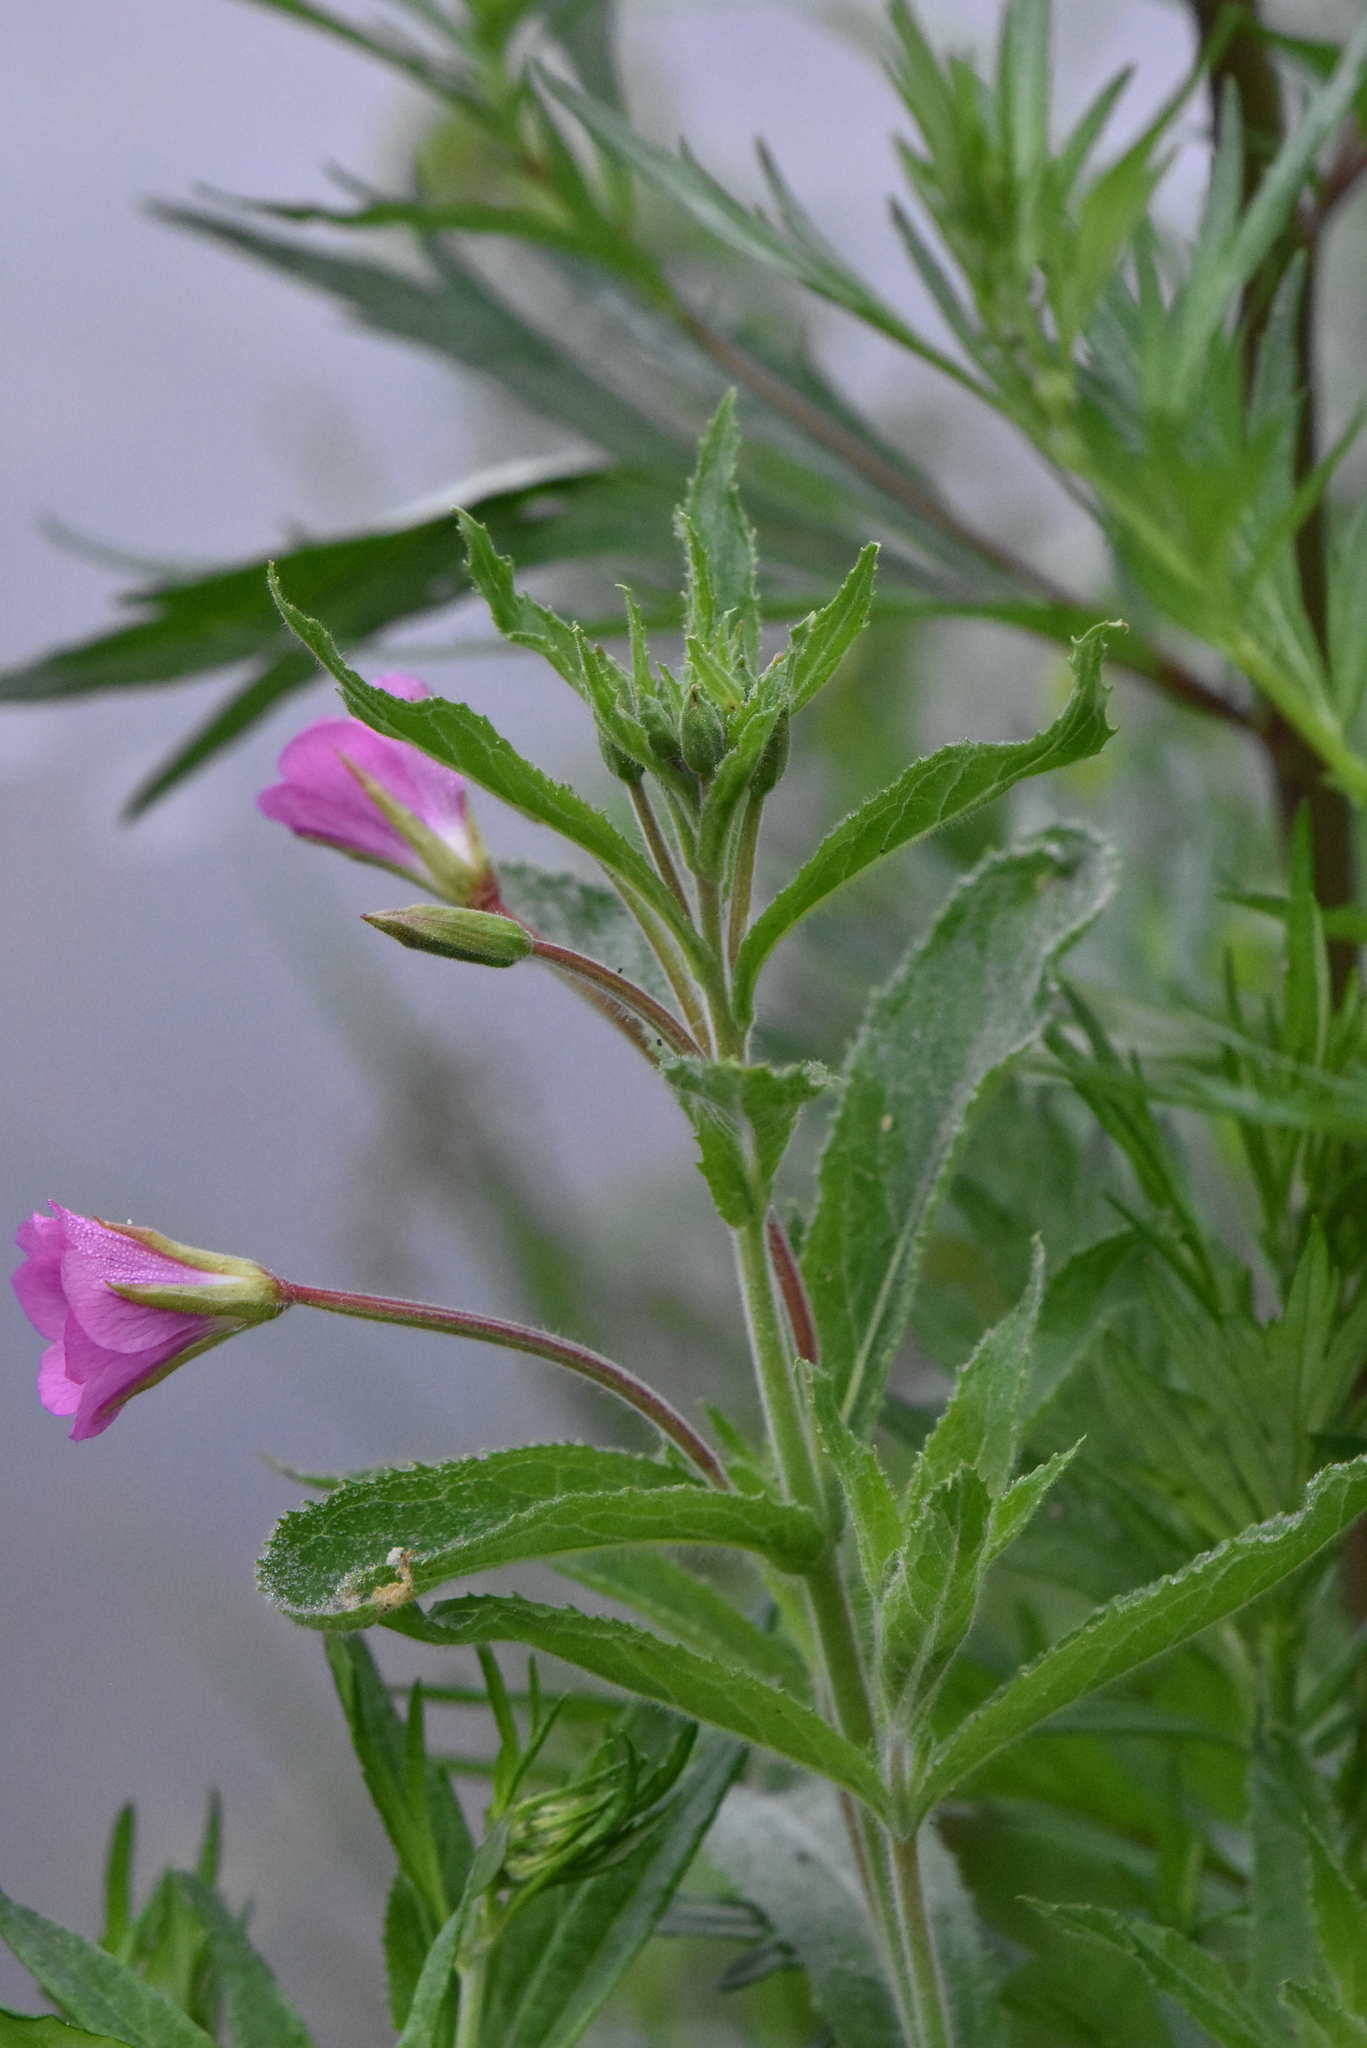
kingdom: Plantae
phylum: Tracheophyta
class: Magnoliopsida
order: Myrtales
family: Onagraceae
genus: Epilobium
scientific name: Epilobium hirsutum
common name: Great willowherb
